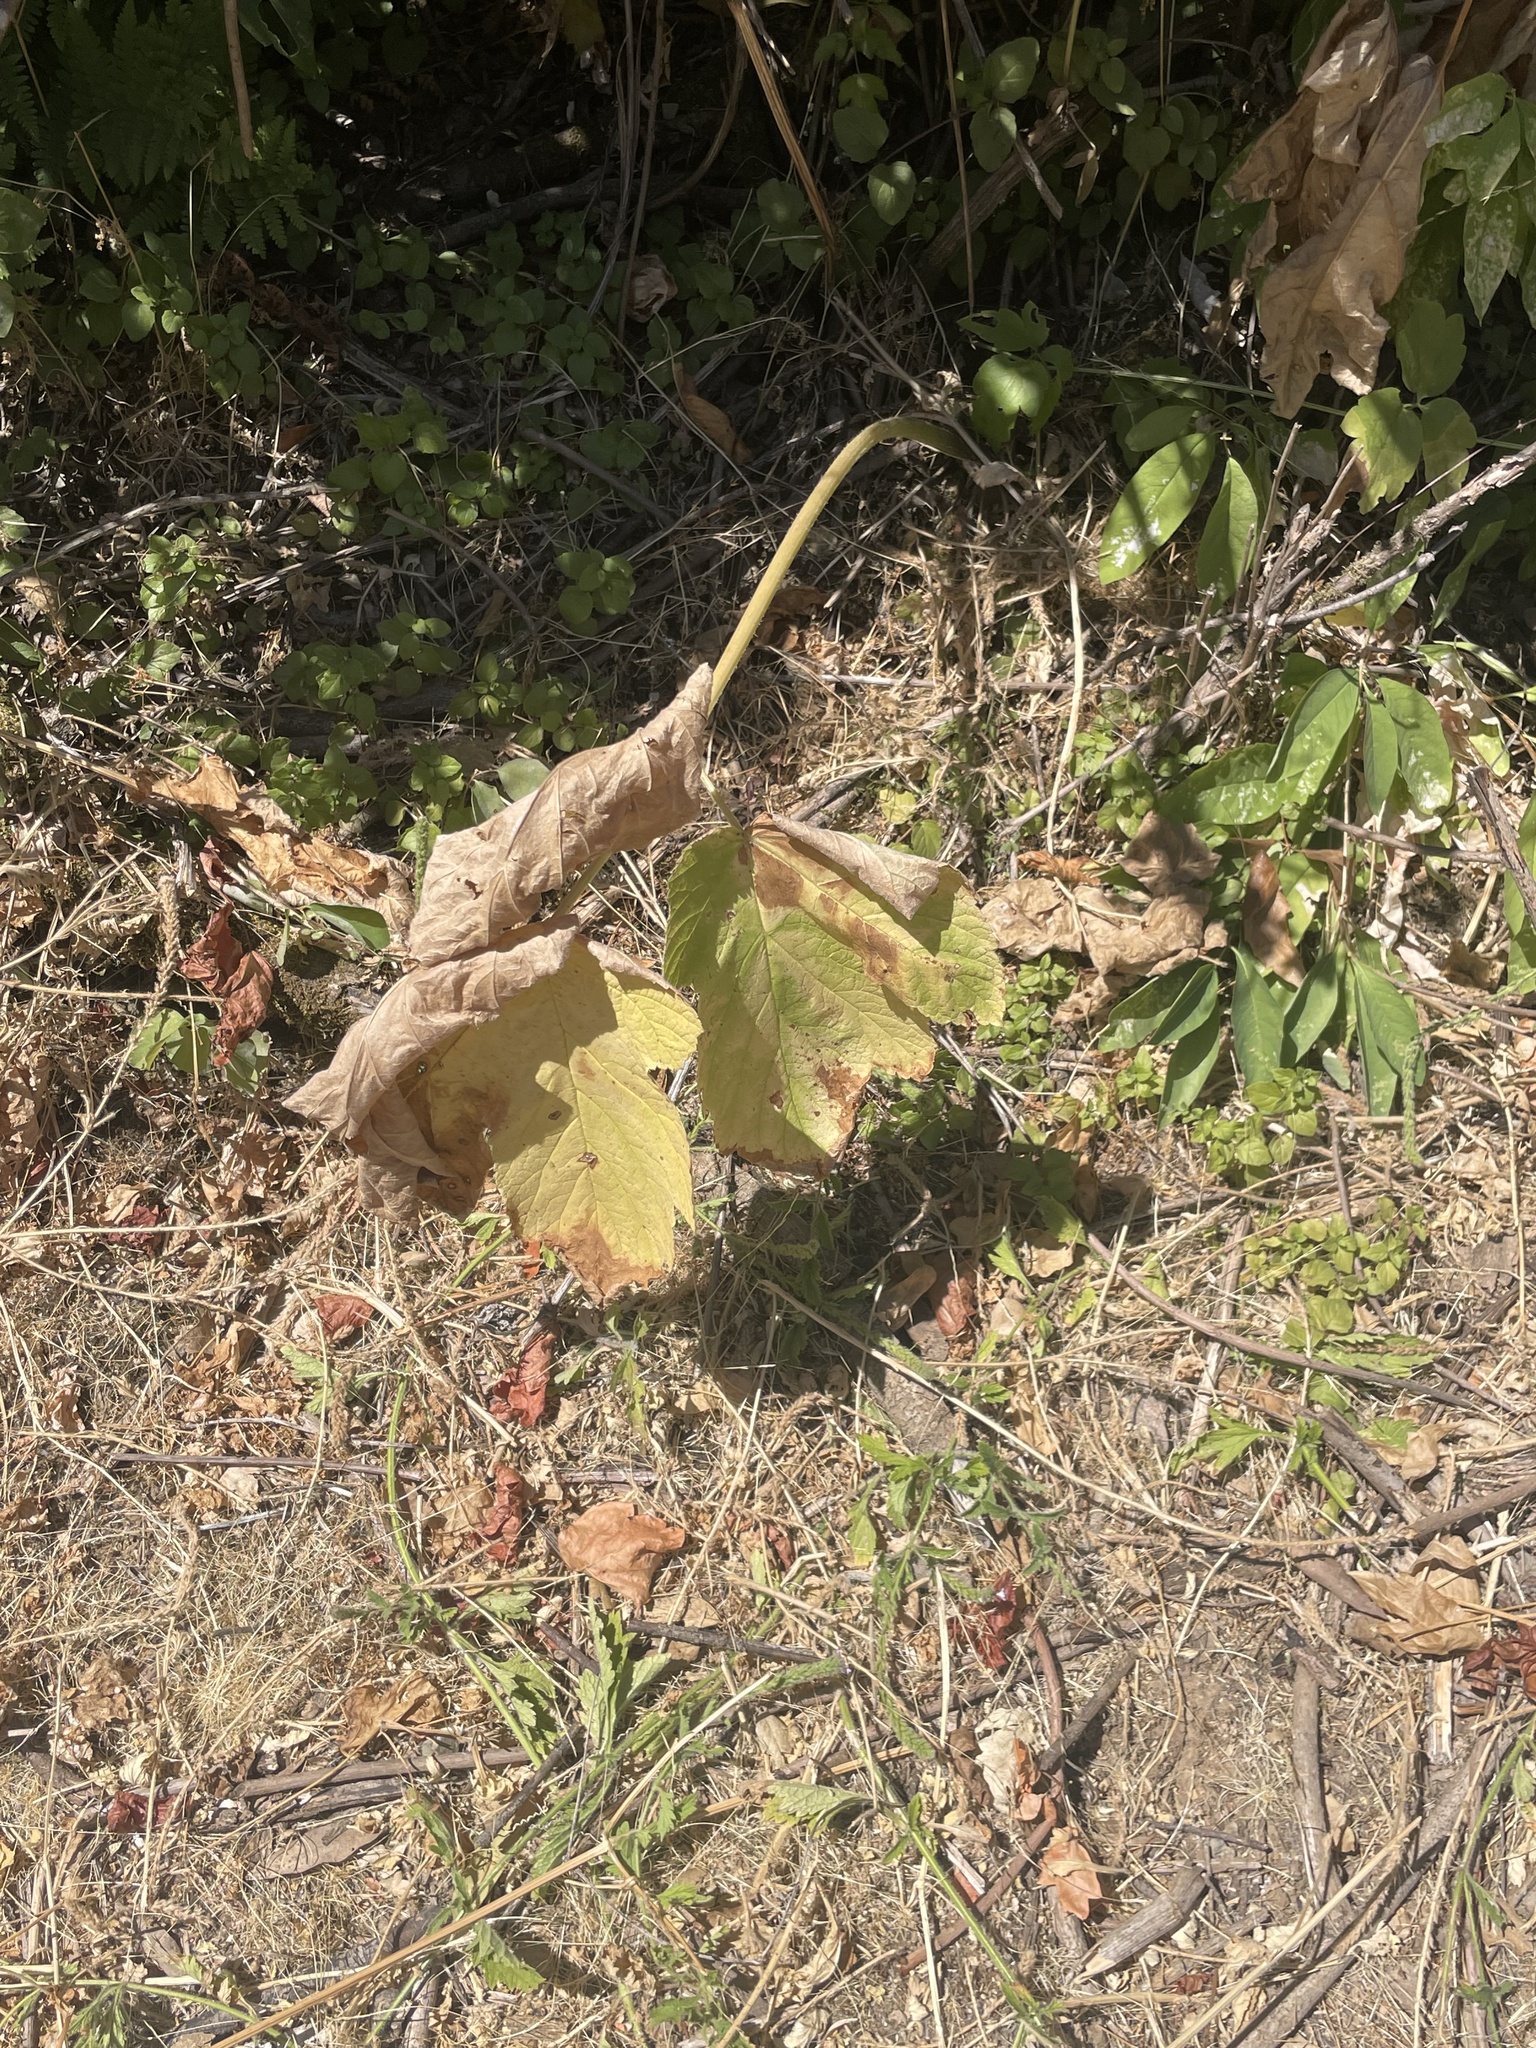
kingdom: Plantae
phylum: Tracheophyta
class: Magnoliopsida
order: Apiales
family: Apiaceae
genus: Heracleum
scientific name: Heracleum maximum
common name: American cow parsnip
